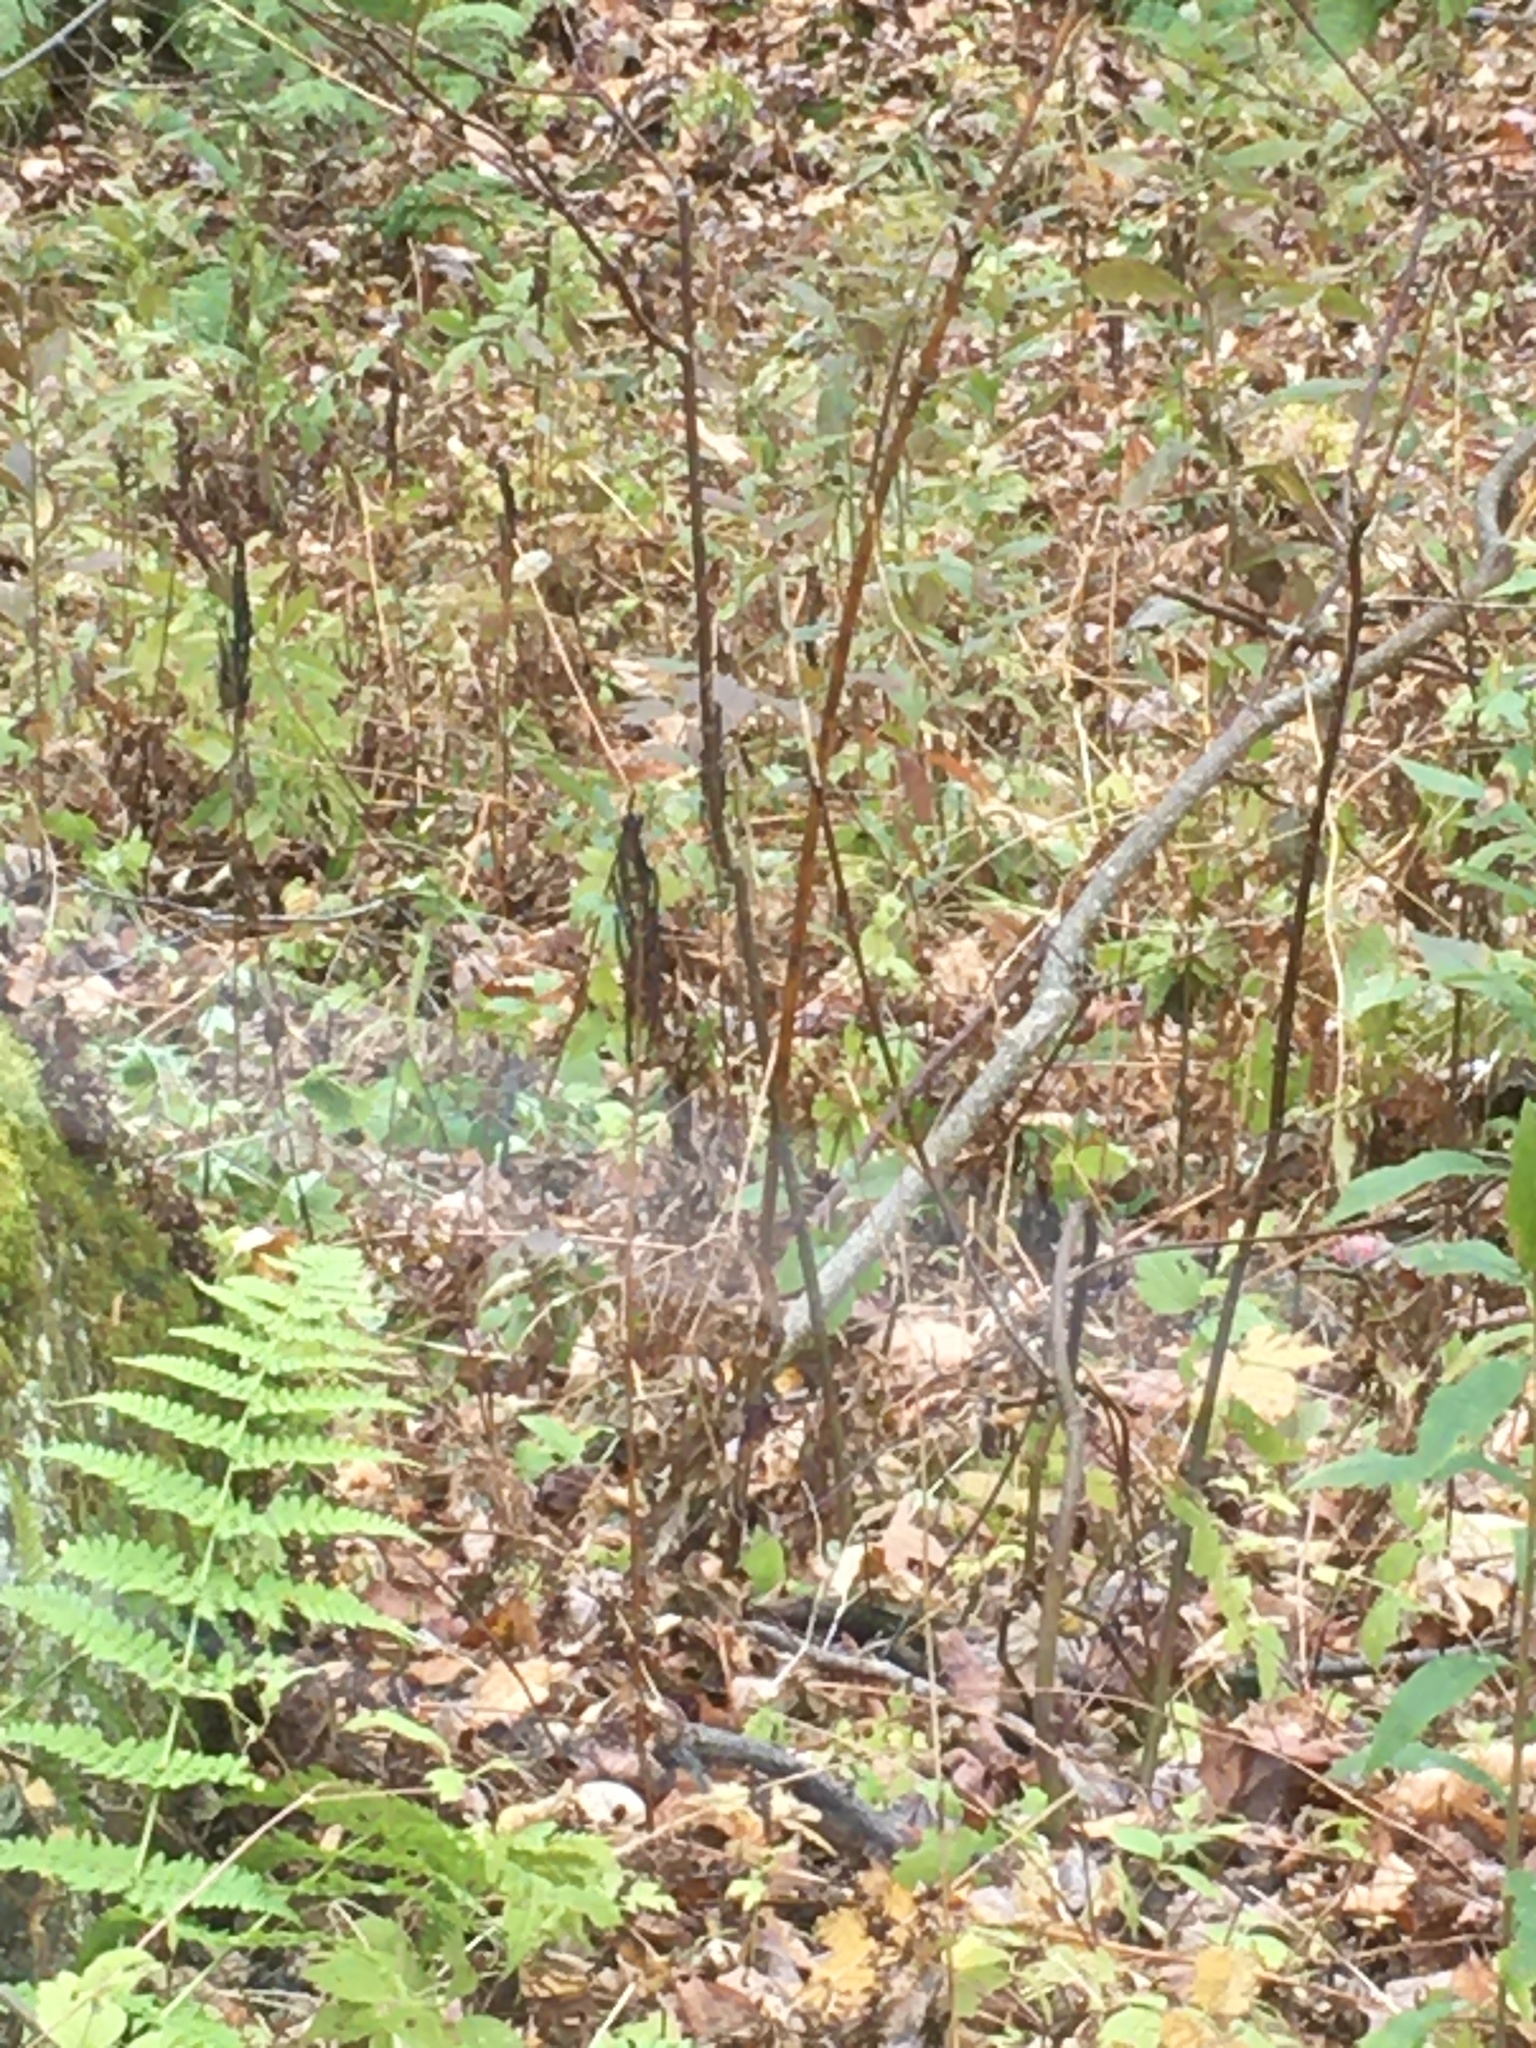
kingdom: Plantae
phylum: Tracheophyta
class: Polypodiopsida
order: Polypodiales
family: Onocleaceae
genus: Onoclea
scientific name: Onoclea sensibilis
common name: Sensitive fern
